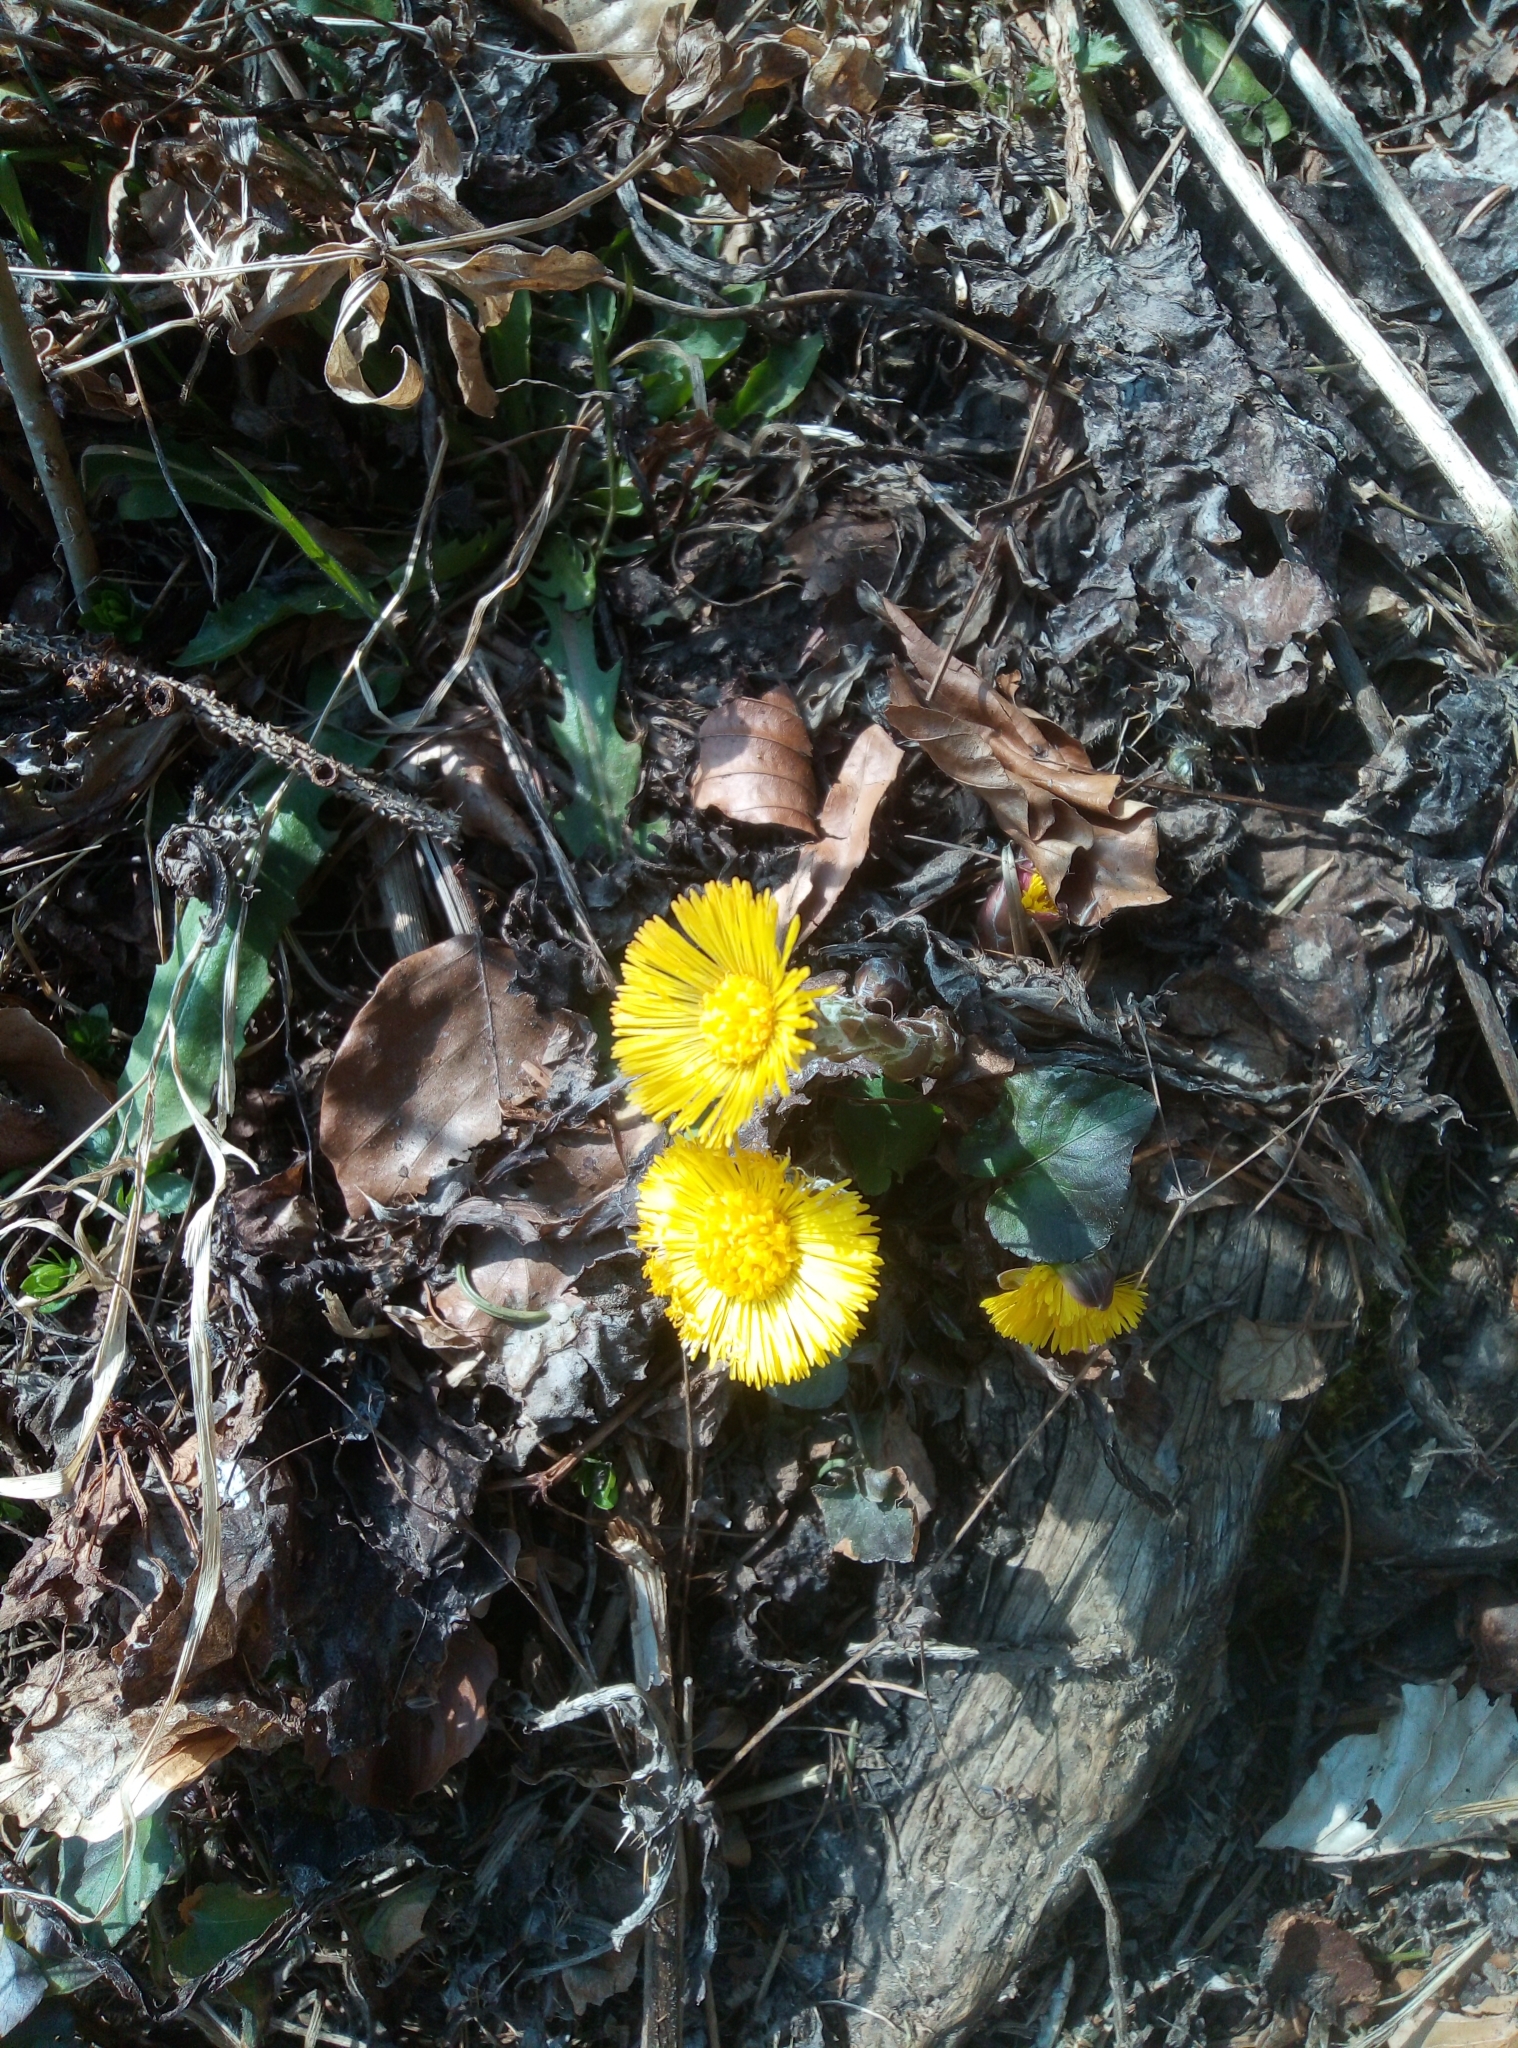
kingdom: Plantae
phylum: Tracheophyta
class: Magnoliopsida
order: Asterales
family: Asteraceae
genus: Tussilago
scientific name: Tussilago farfara
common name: Coltsfoot
